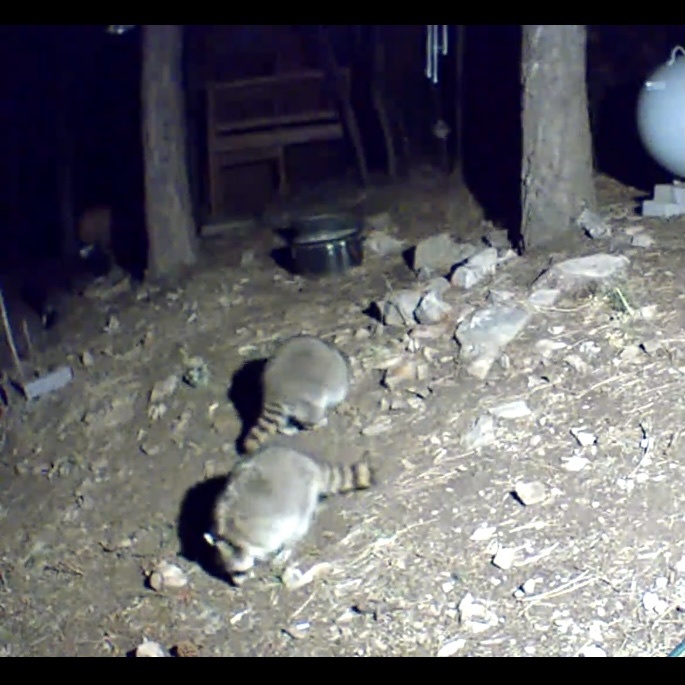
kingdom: Animalia
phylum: Chordata
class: Mammalia
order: Carnivora
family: Procyonidae
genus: Procyon
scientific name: Procyon lotor
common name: Raccoon
